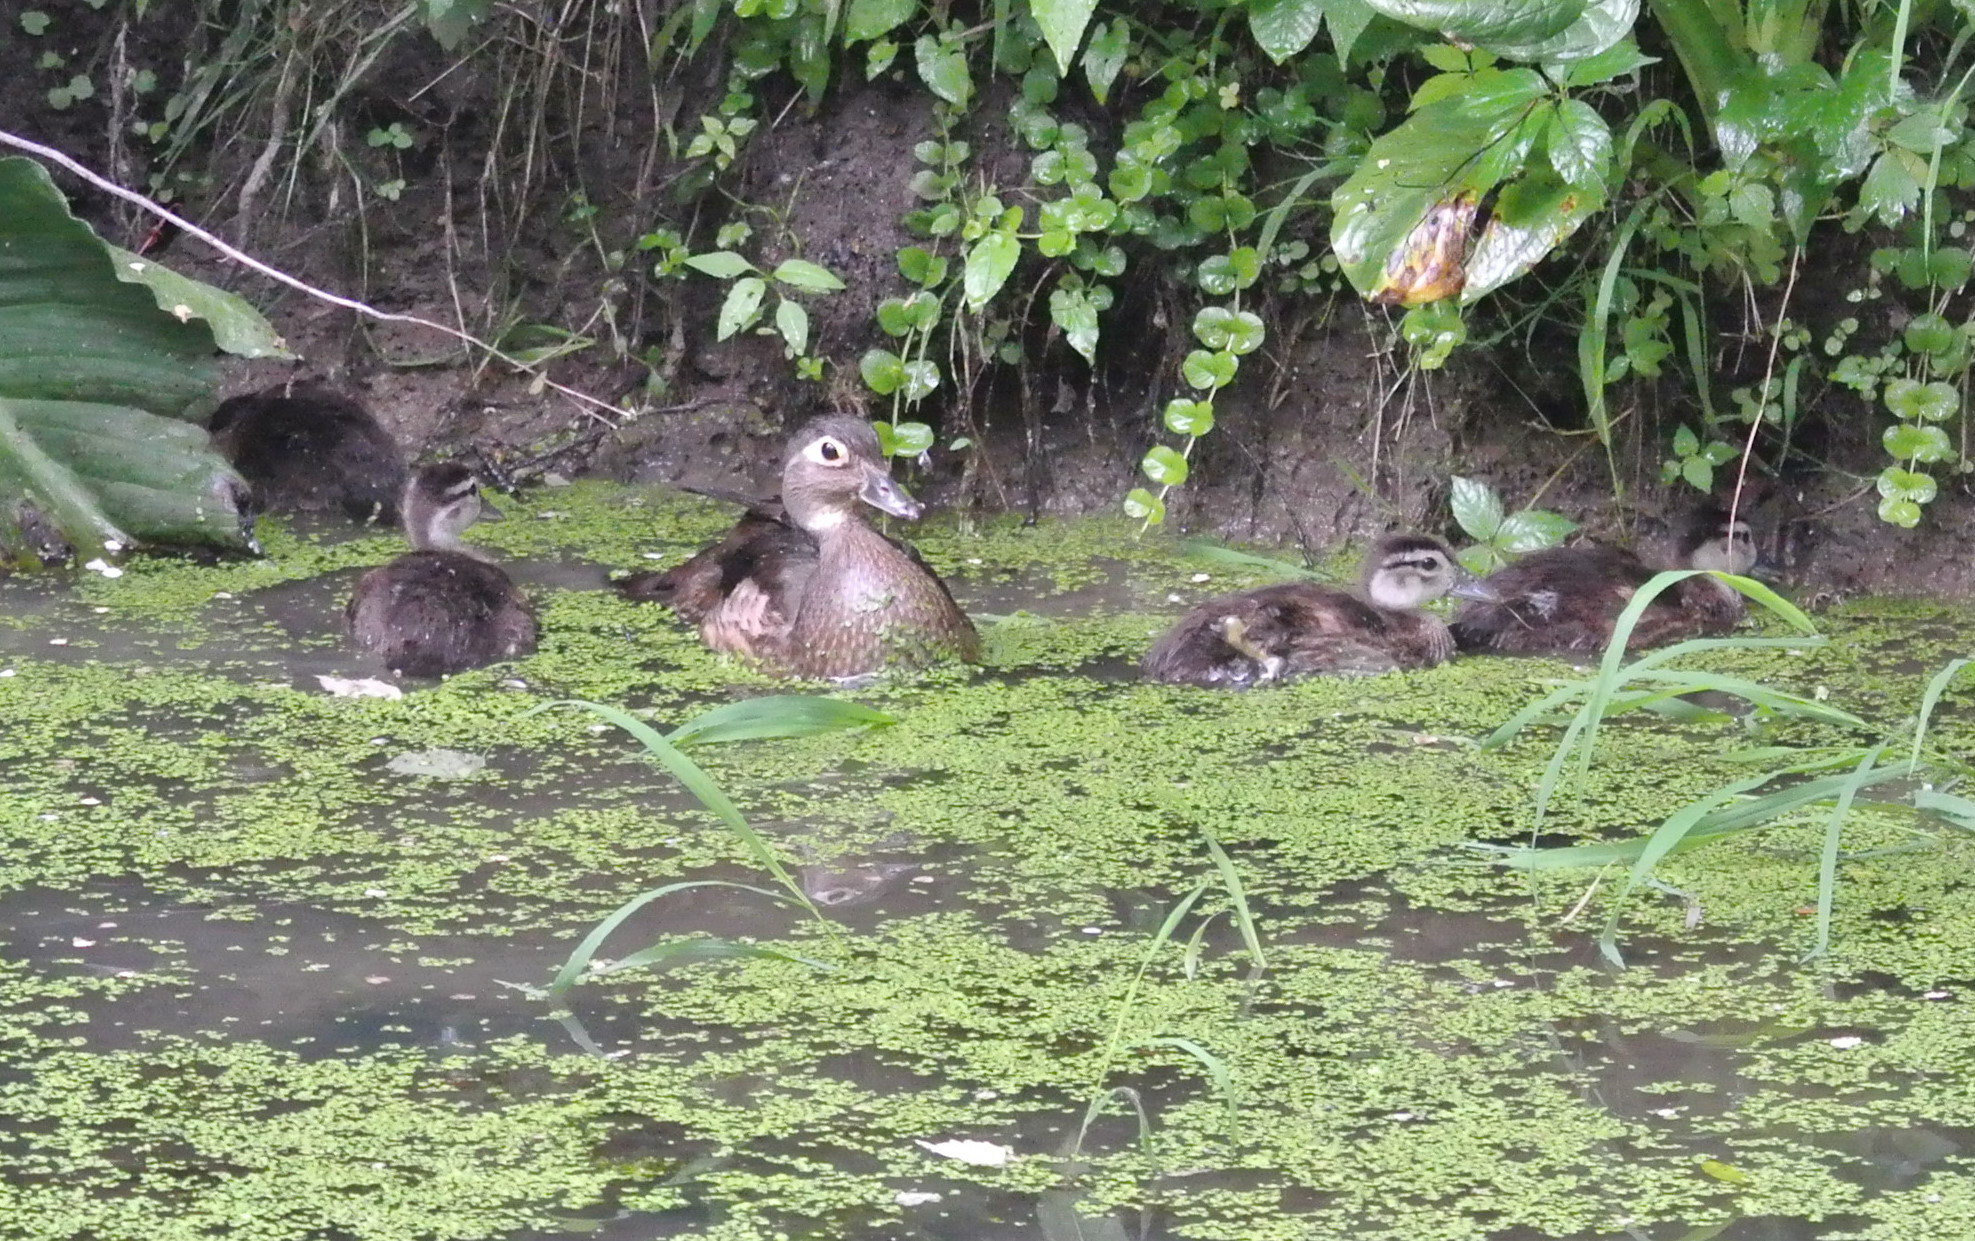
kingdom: Animalia
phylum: Chordata
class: Aves
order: Anseriformes
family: Anatidae
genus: Aix
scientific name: Aix sponsa
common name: Wood duck
